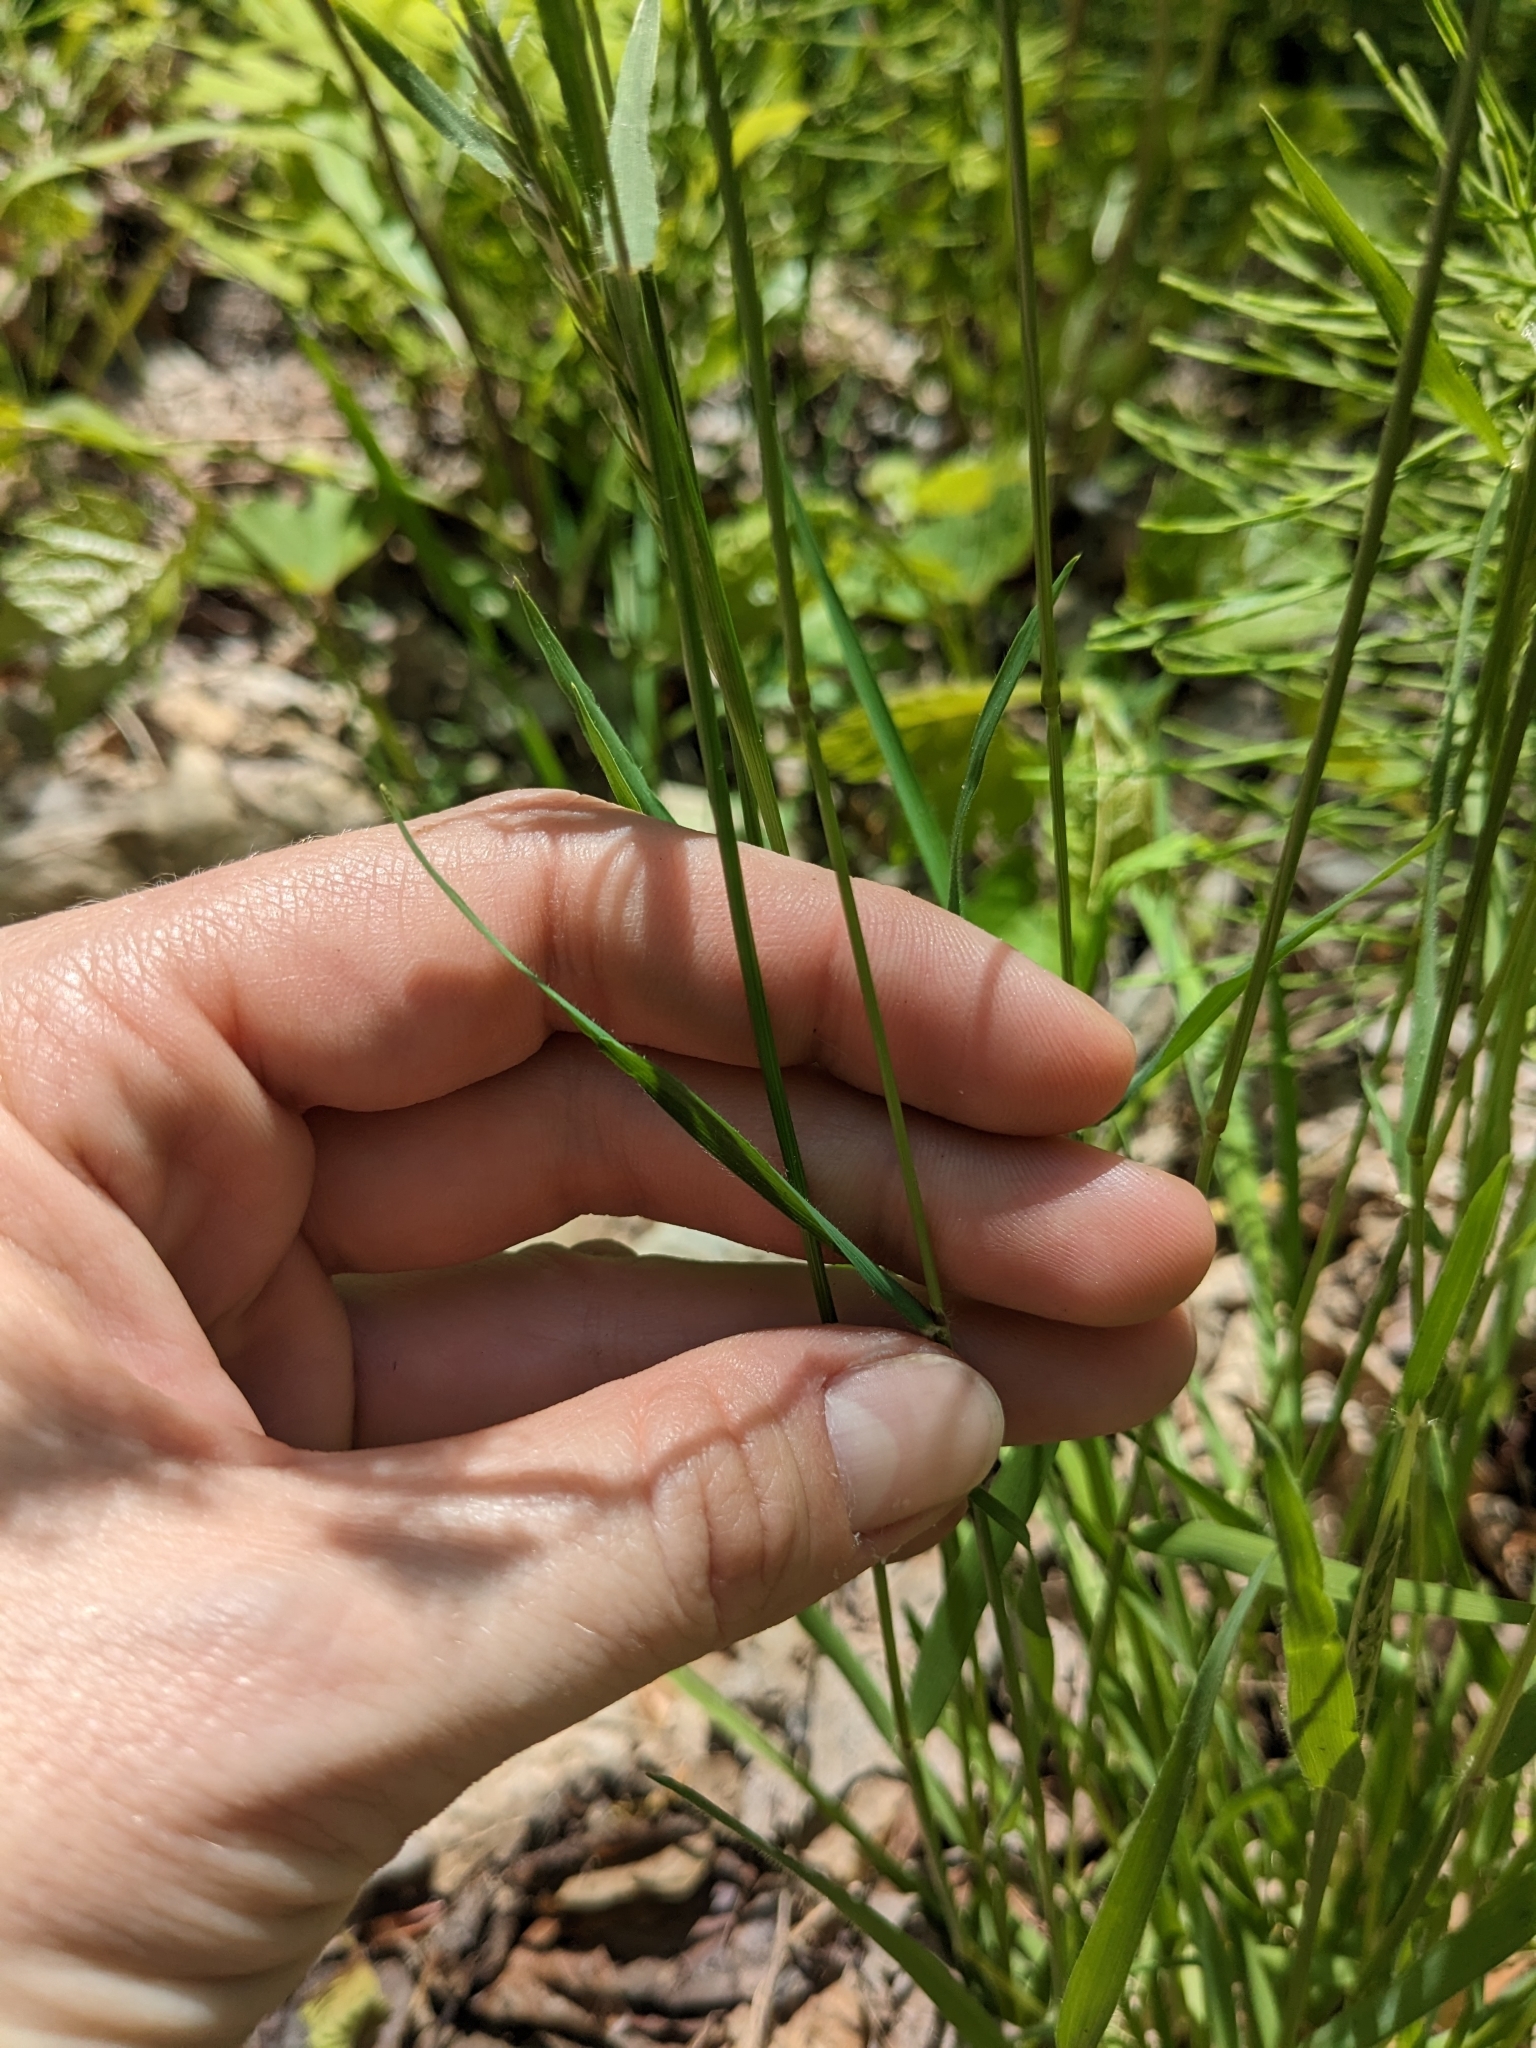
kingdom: Plantae
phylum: Tracheophyta
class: Liliopsida
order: Poales
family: Poaceae
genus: Anthoxanthum
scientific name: Anthoxanthum odoratum
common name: Sweet vernalgrass
